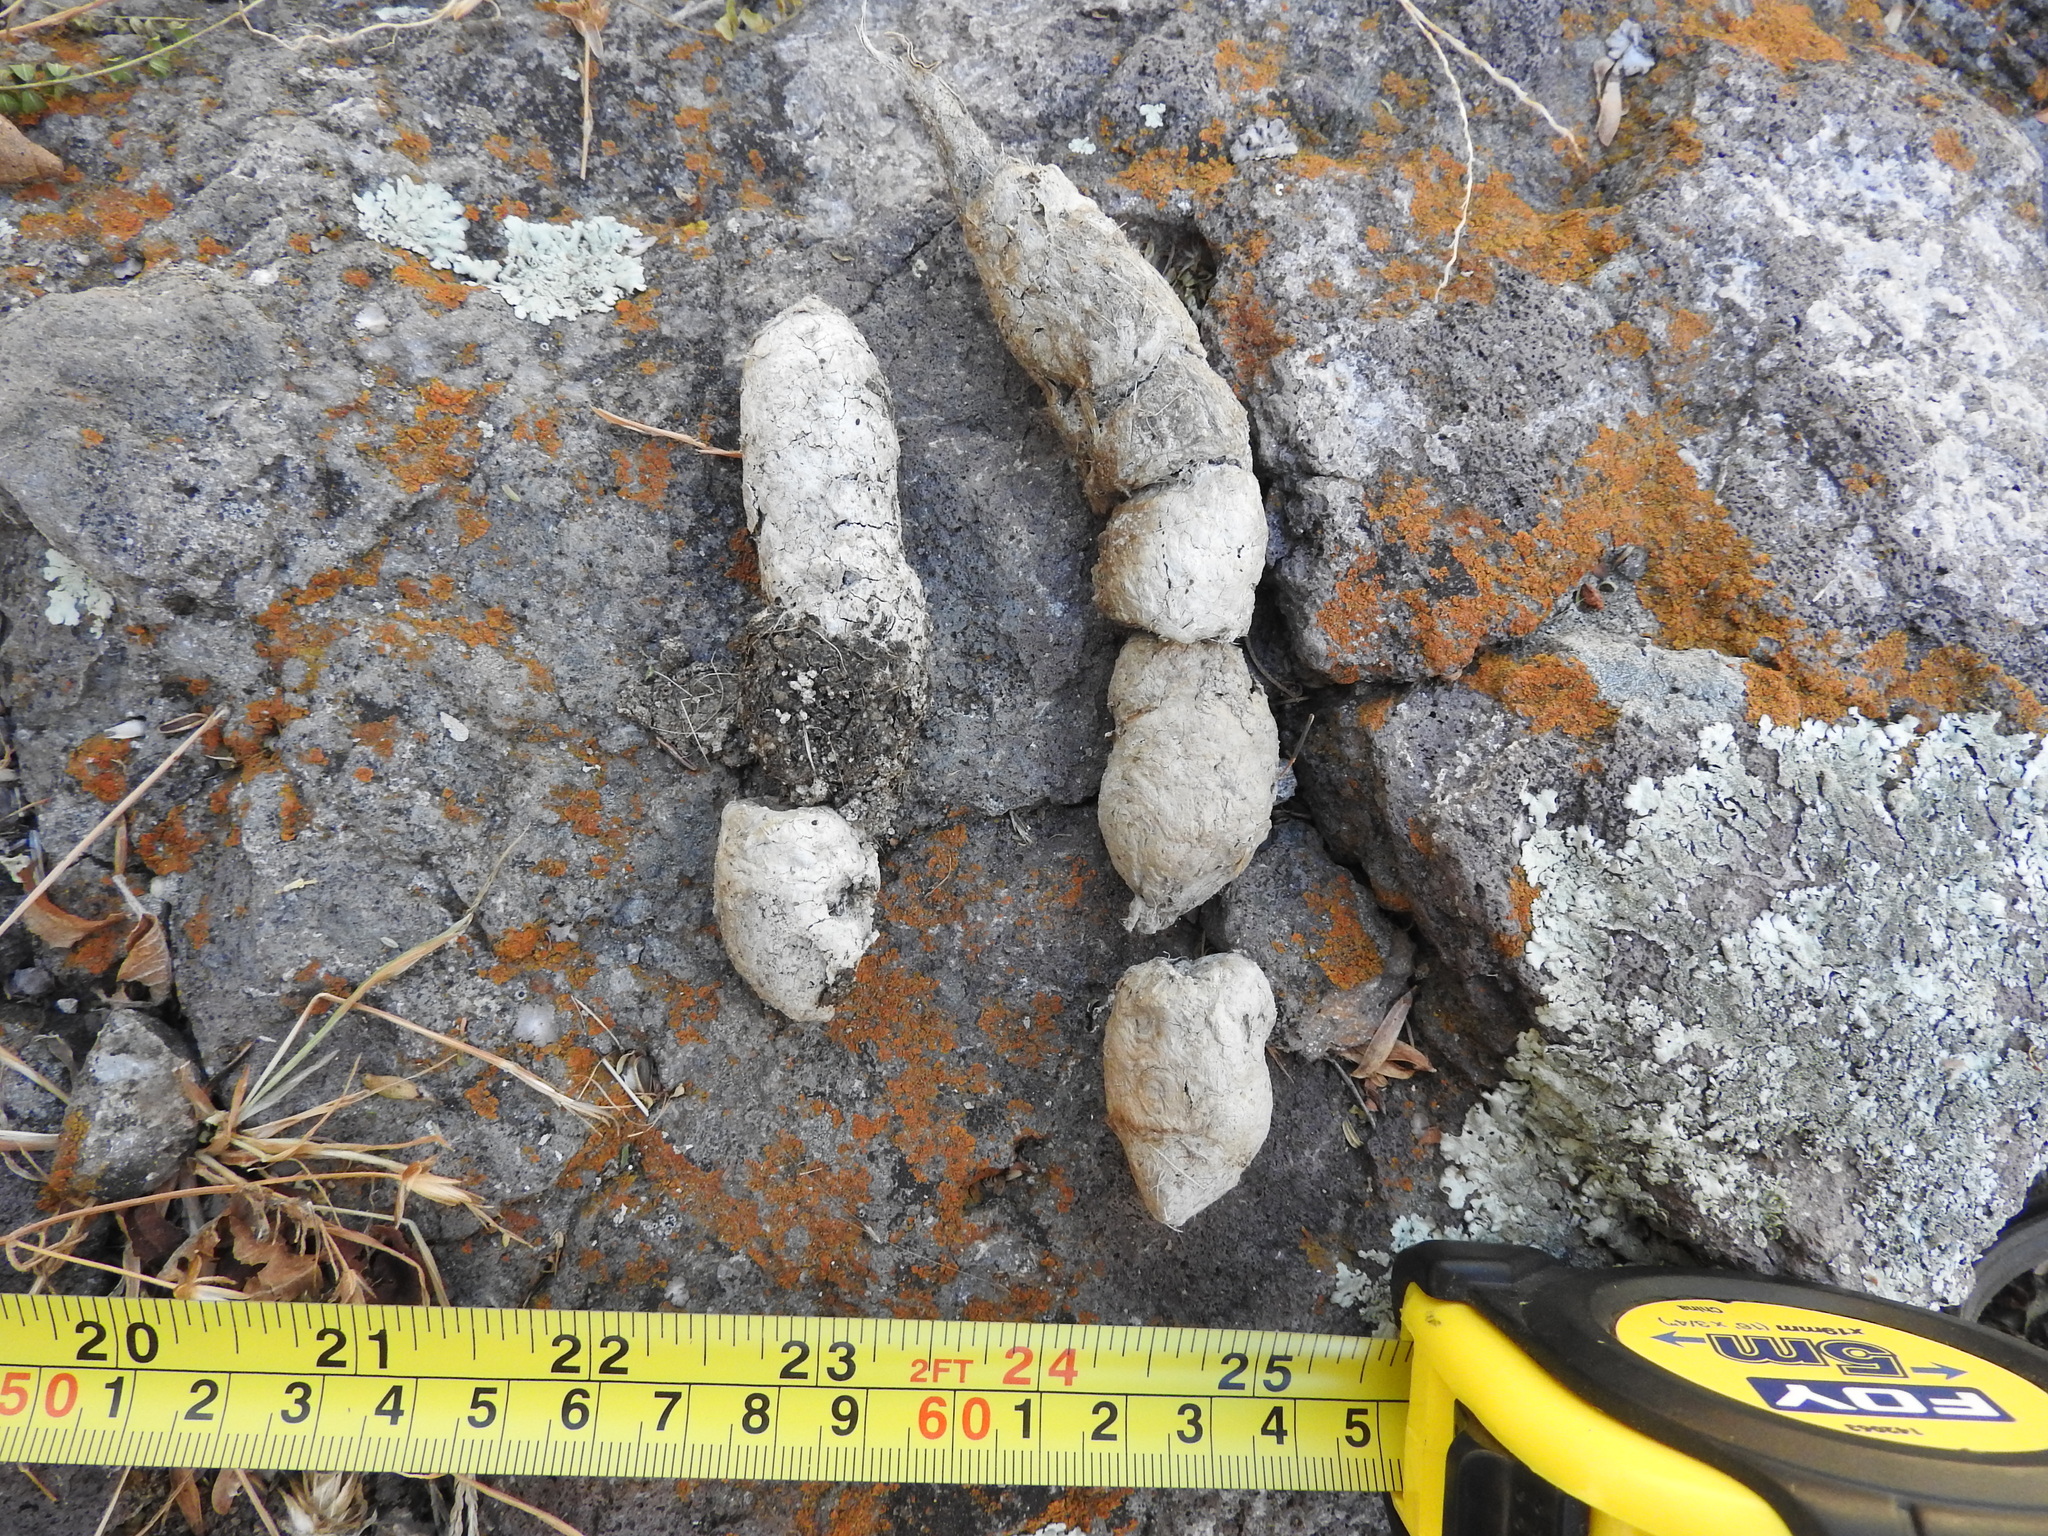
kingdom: Animalia
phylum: Chordata
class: Mammalia
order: Carnivora
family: Felidae
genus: Lynx
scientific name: Lynx rufus
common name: Bobcat
